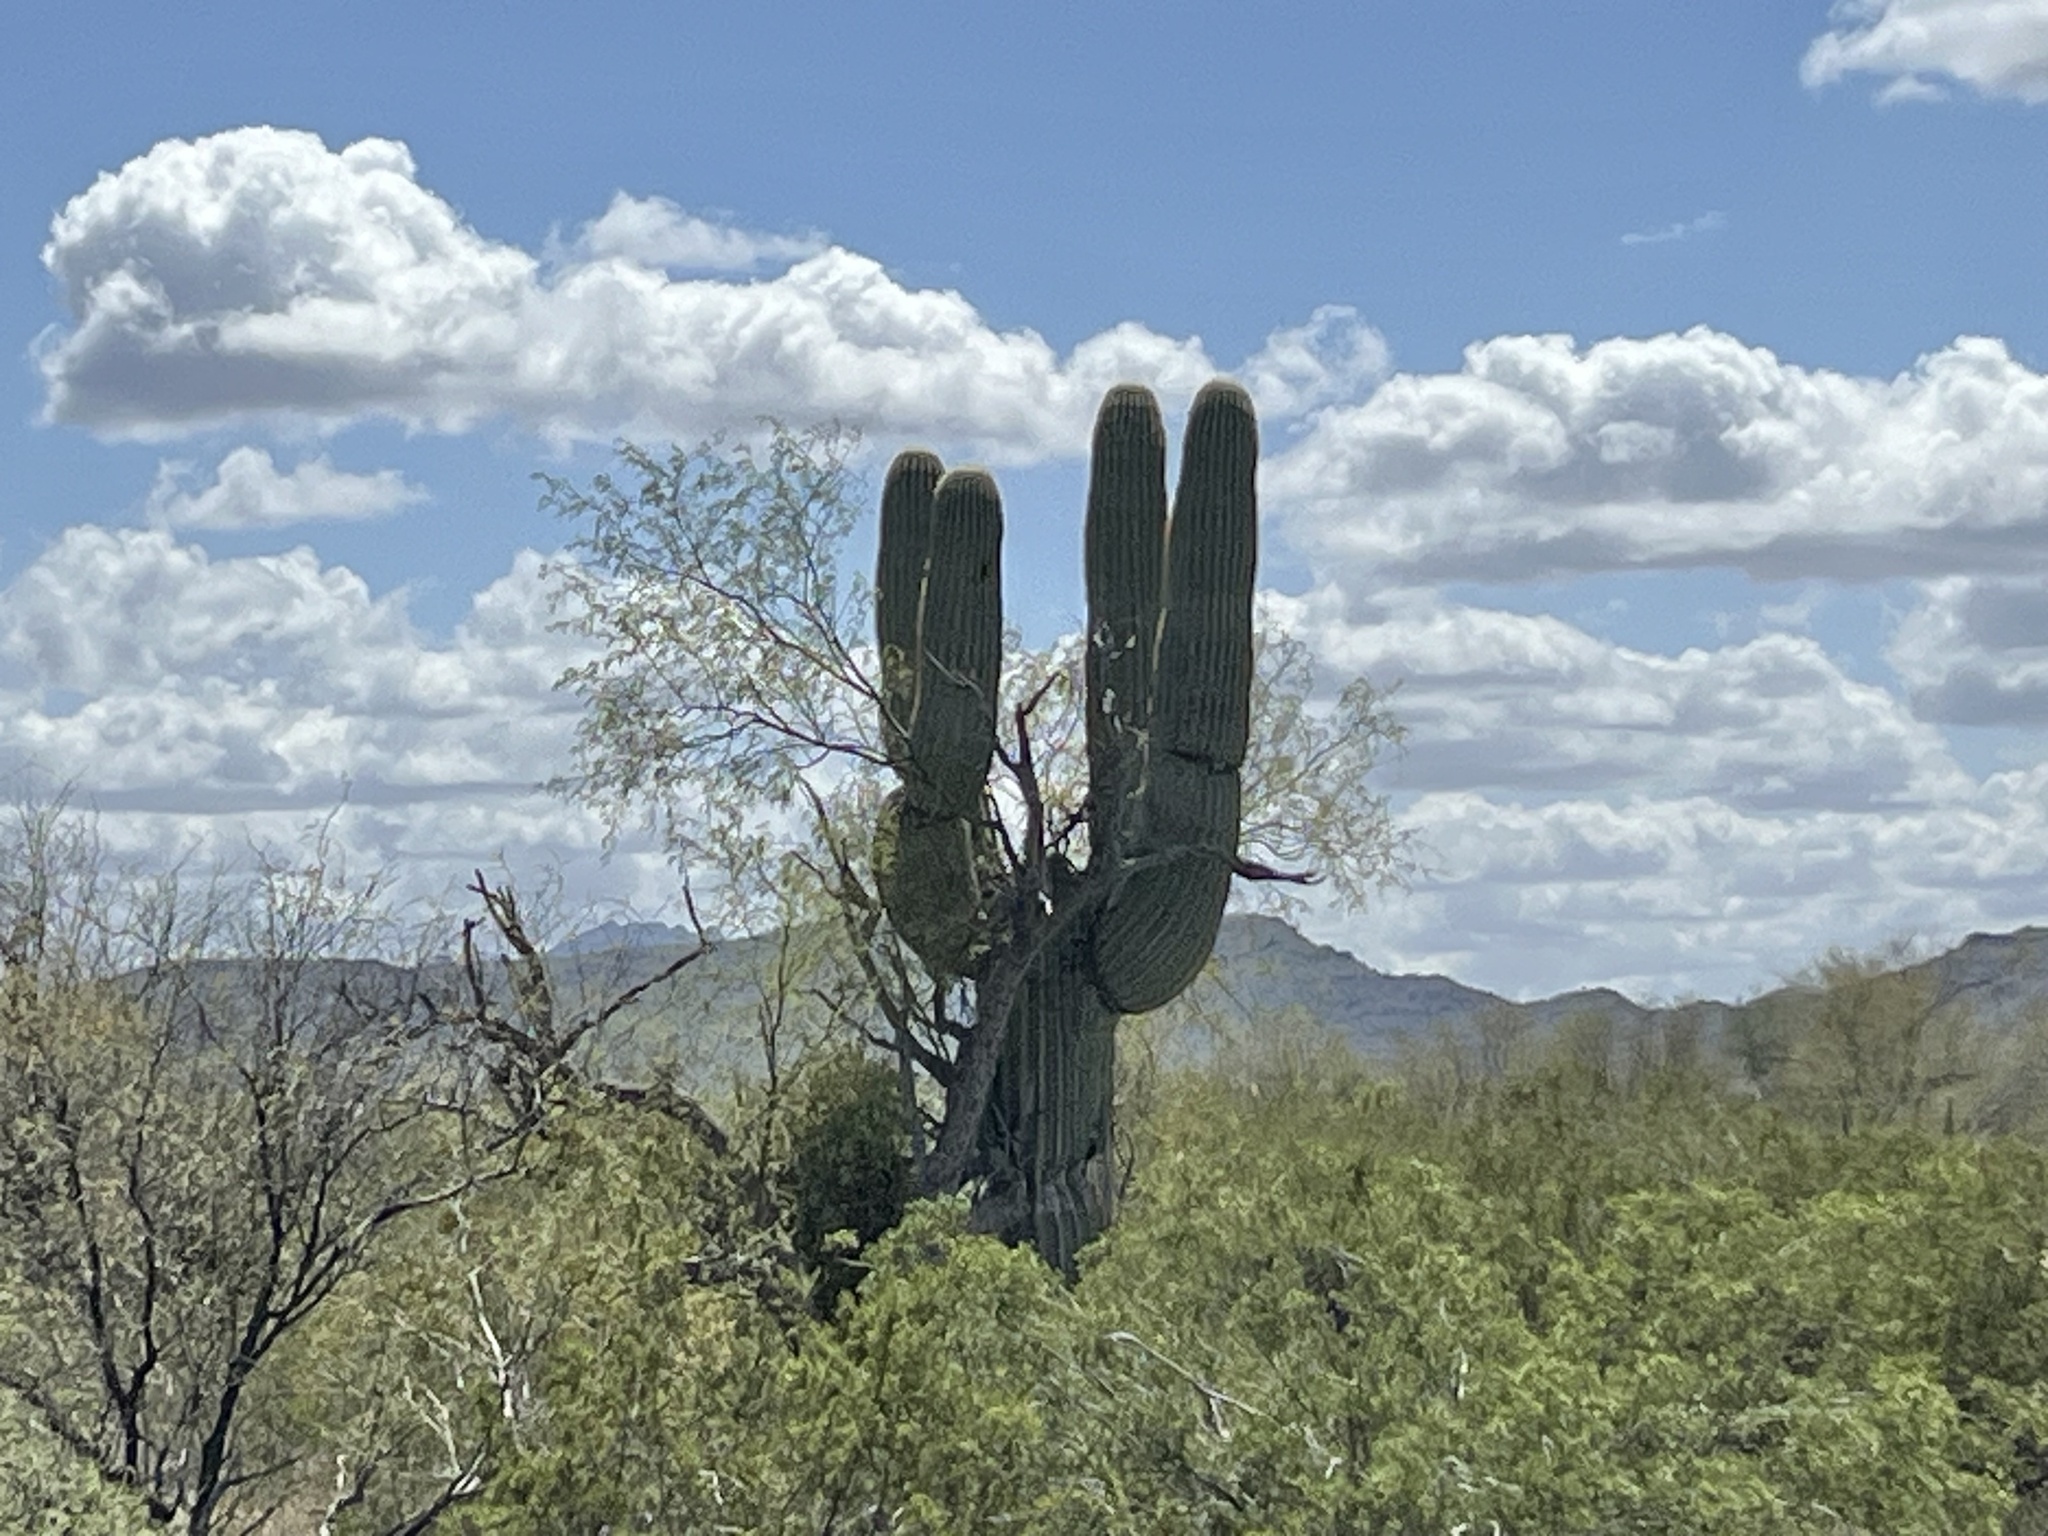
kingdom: Plantae
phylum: Tracheophyta
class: Magnoliopsida
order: Caryophyllales
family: Cactaceae
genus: Carnegiea
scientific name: Carnegiea gigantea
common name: Saguaro
